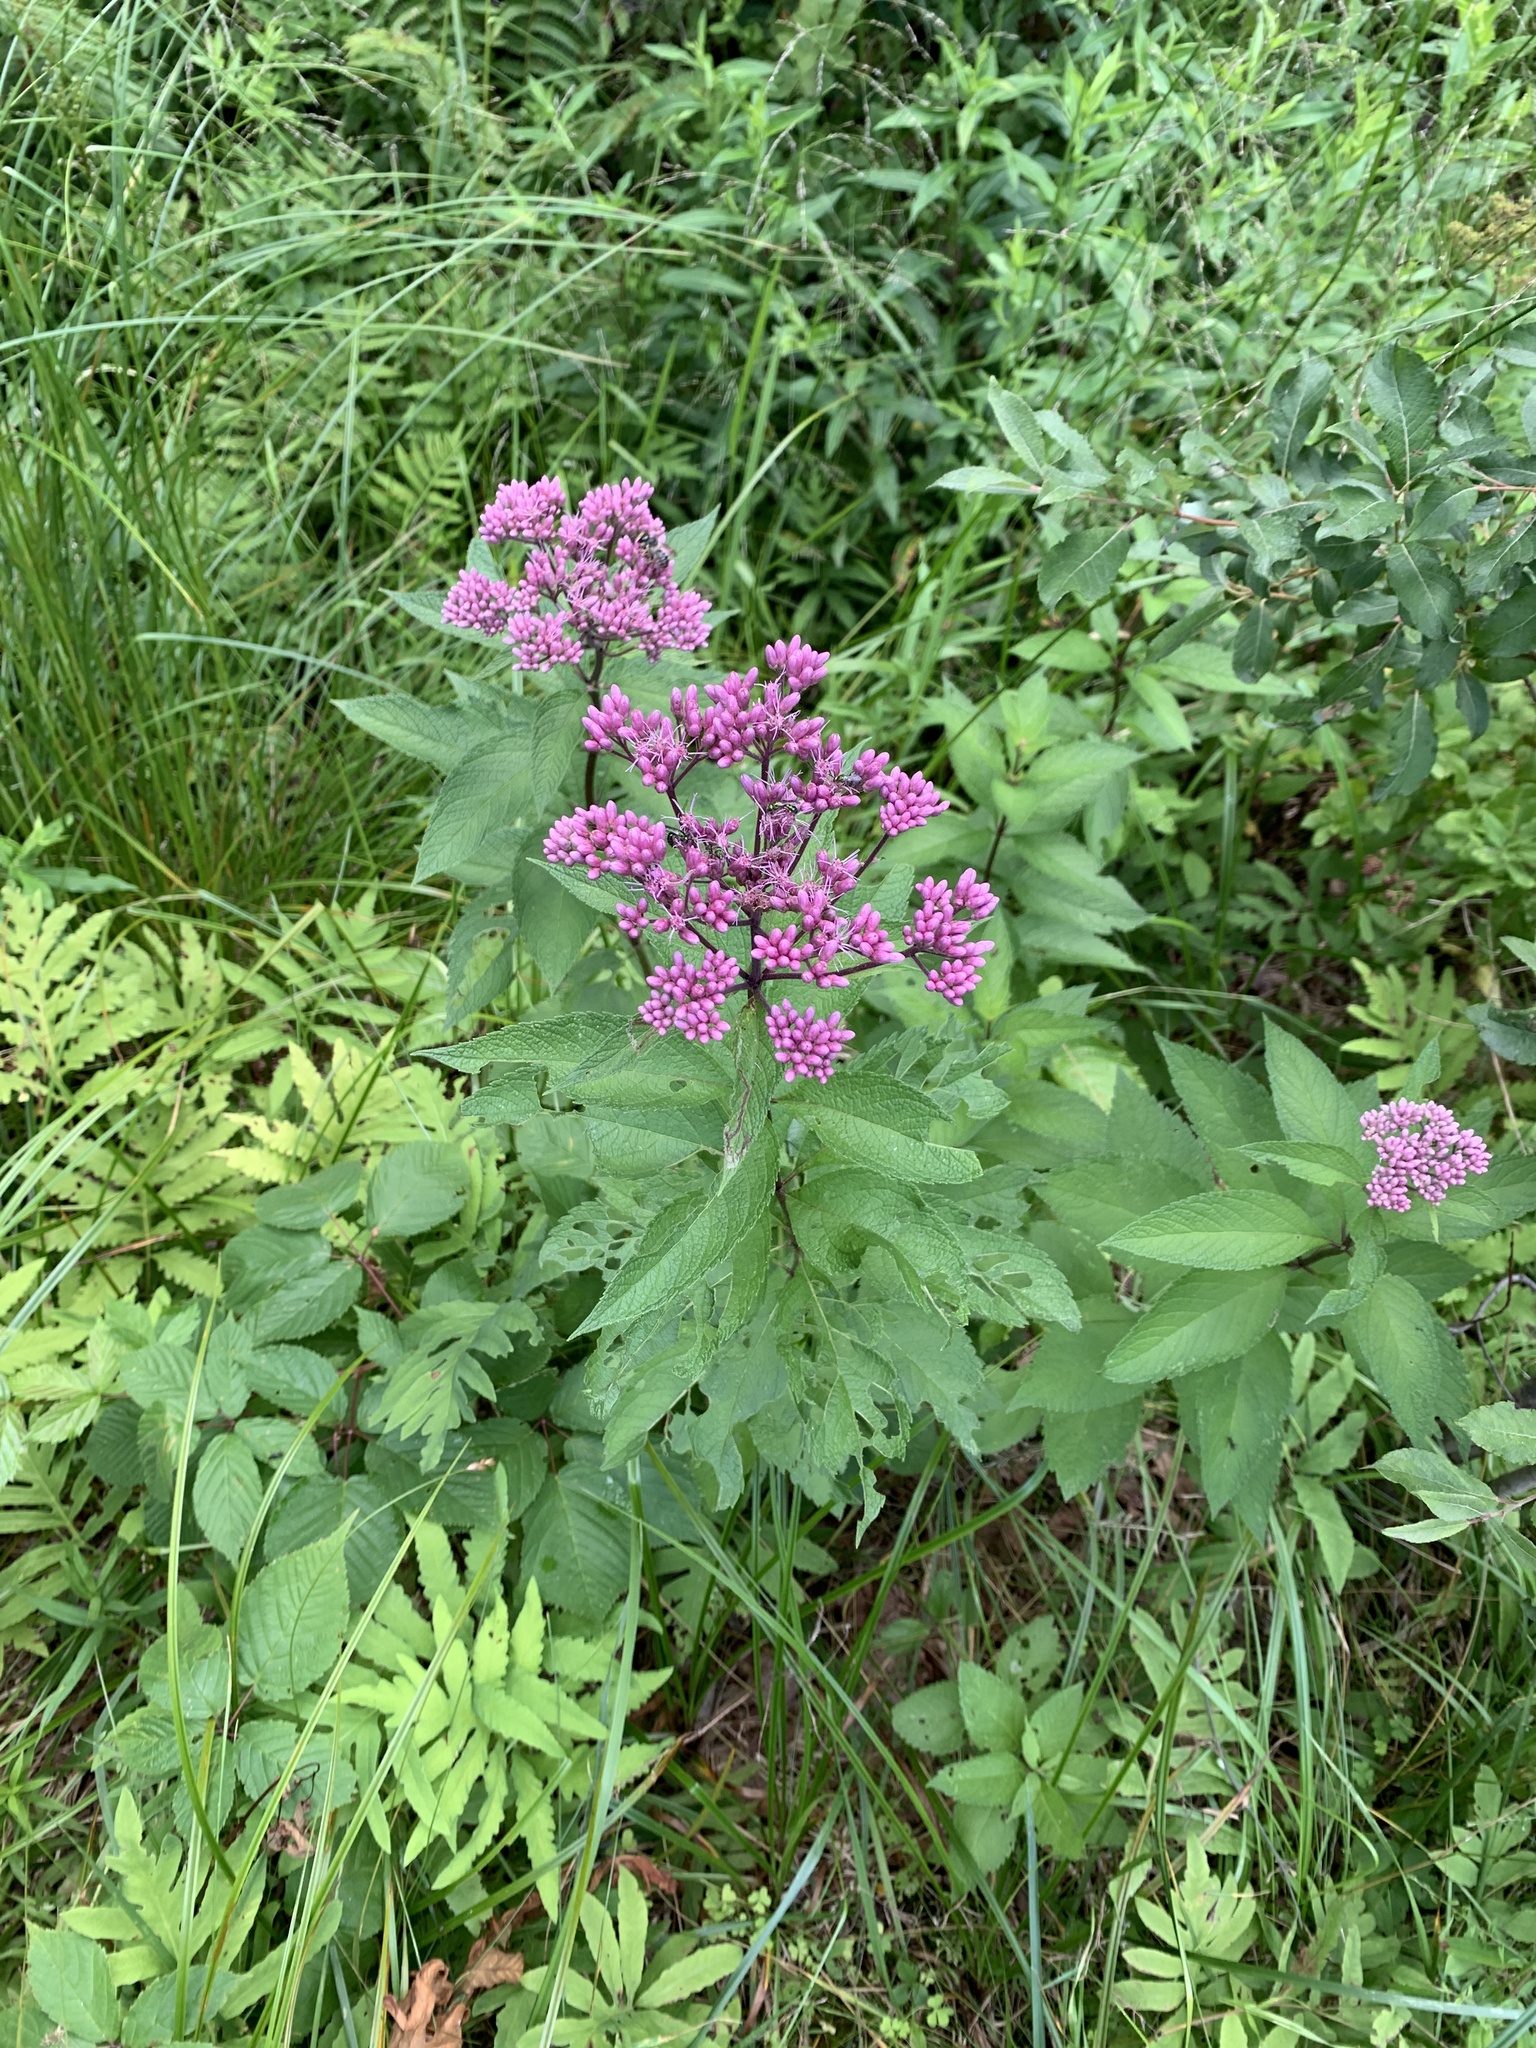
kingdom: Plantae
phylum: Tracheophyta
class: Magnoliopsida
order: Asterales
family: Asteraceae
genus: Eutrochium
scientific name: Eutrochium maculatum
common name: Spotted joe pye weed
